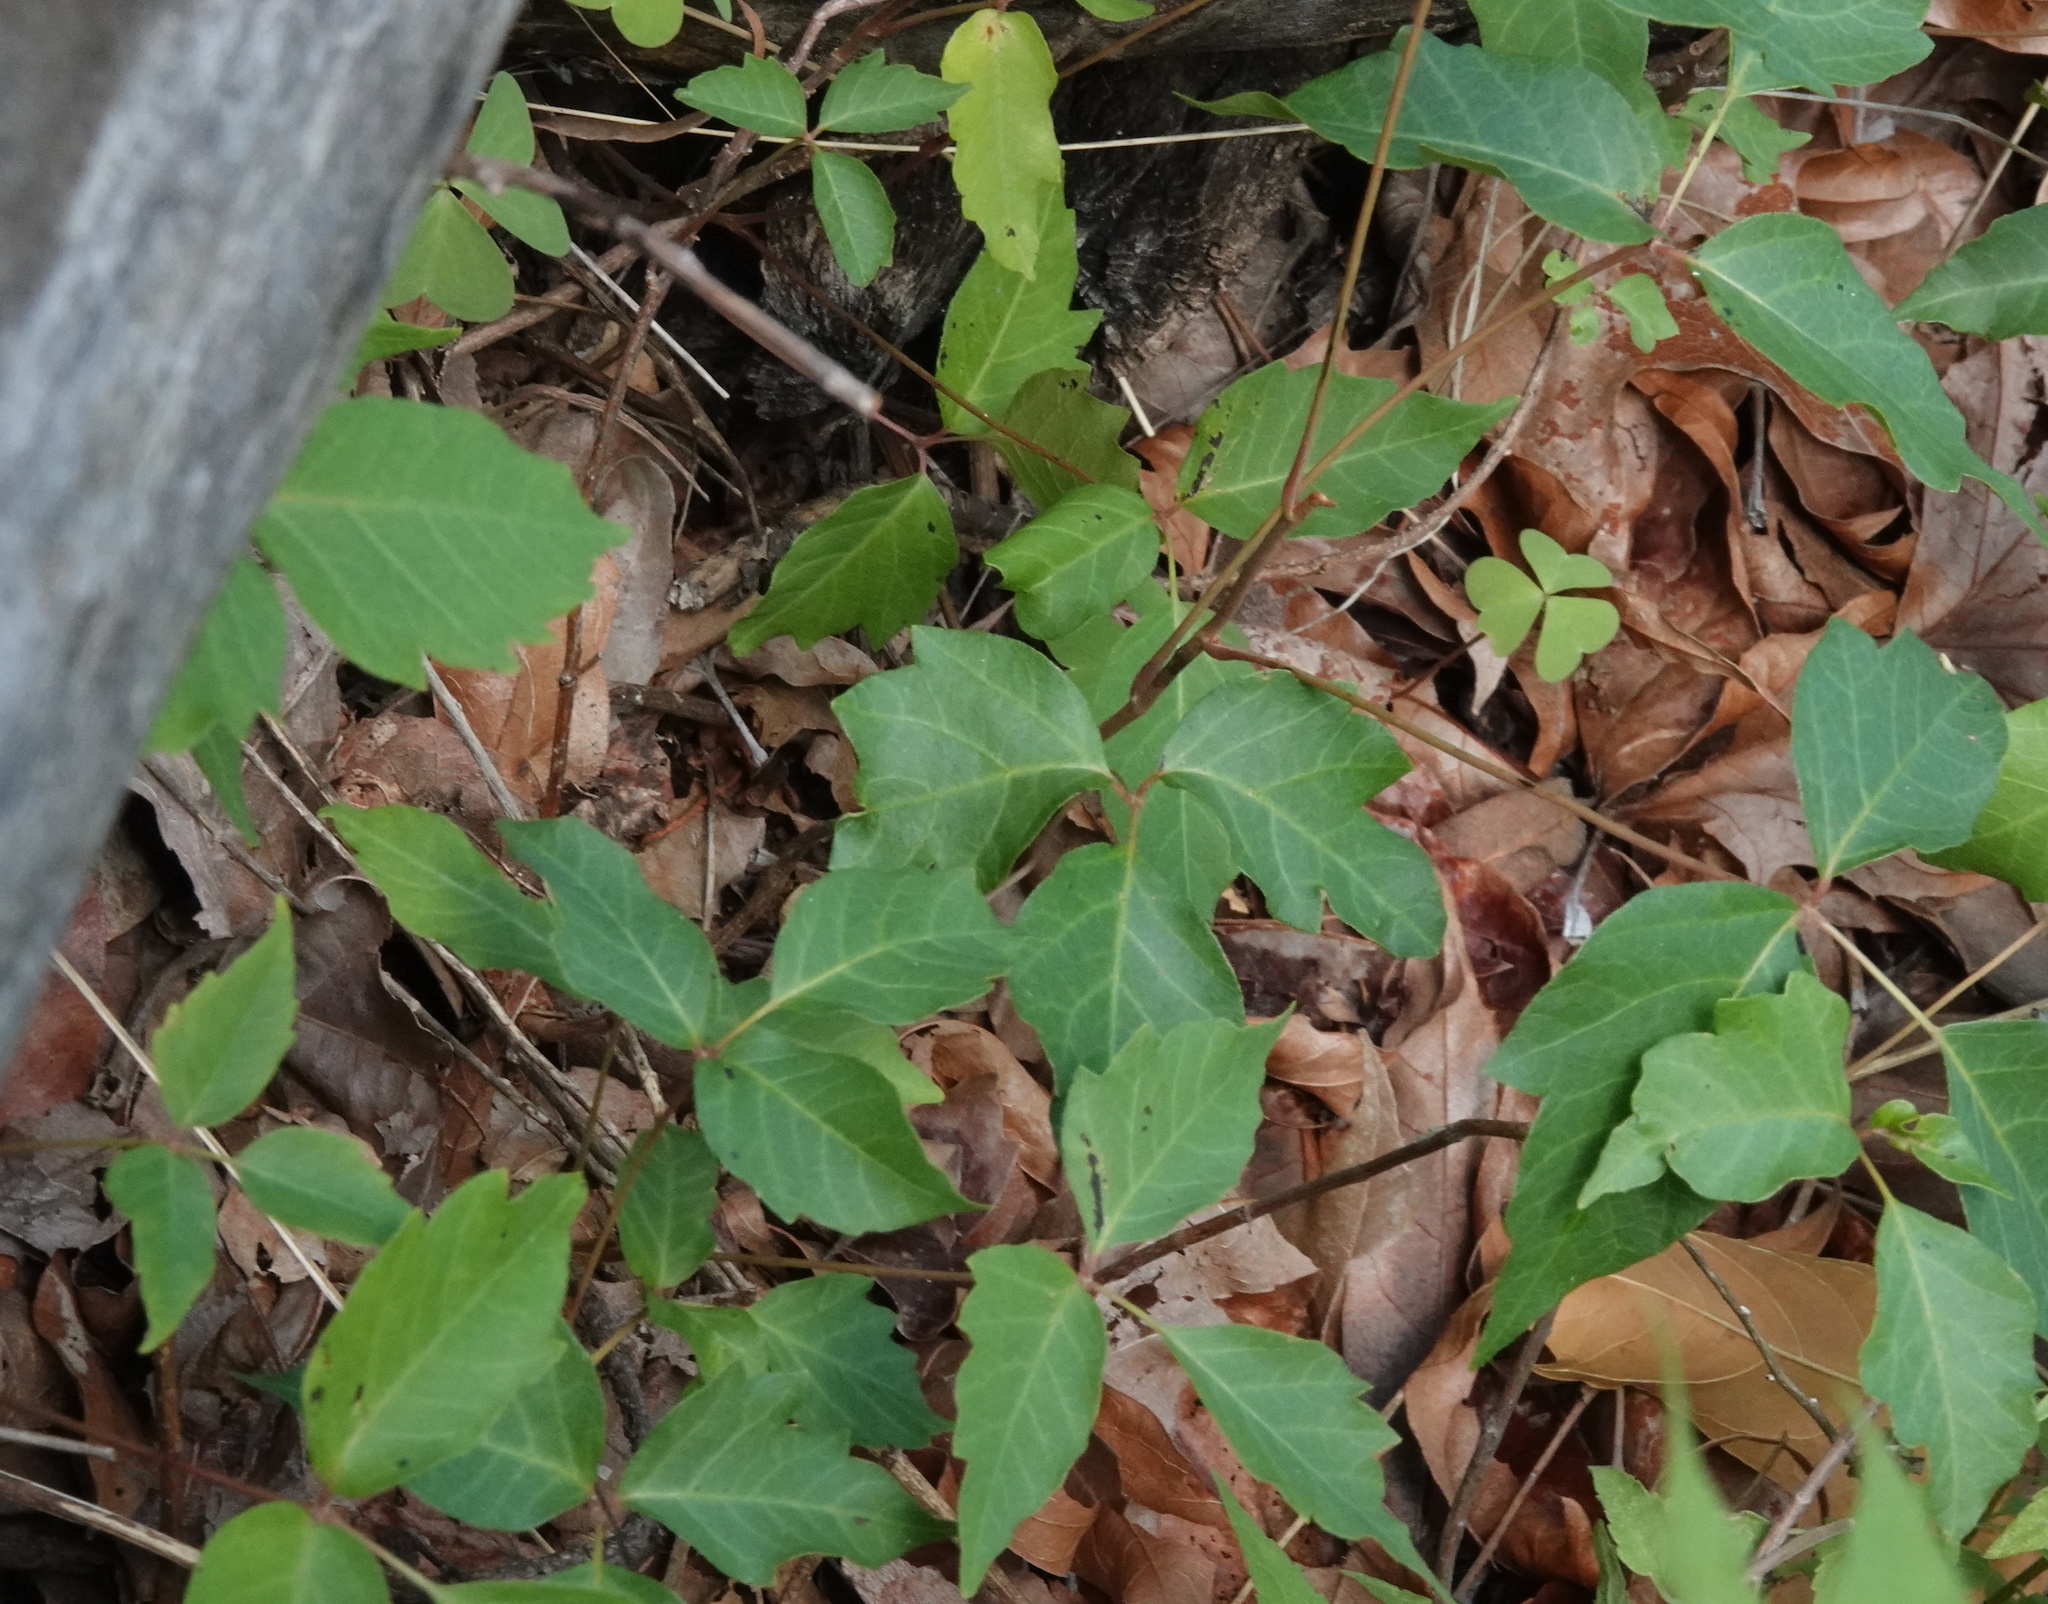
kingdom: Plantae
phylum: Tracheophyta
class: Magnoliopsida
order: Sapindales
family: Anacardiaceae
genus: Toxicodendron
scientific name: Toxicodendron radicans
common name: Poison ivy
